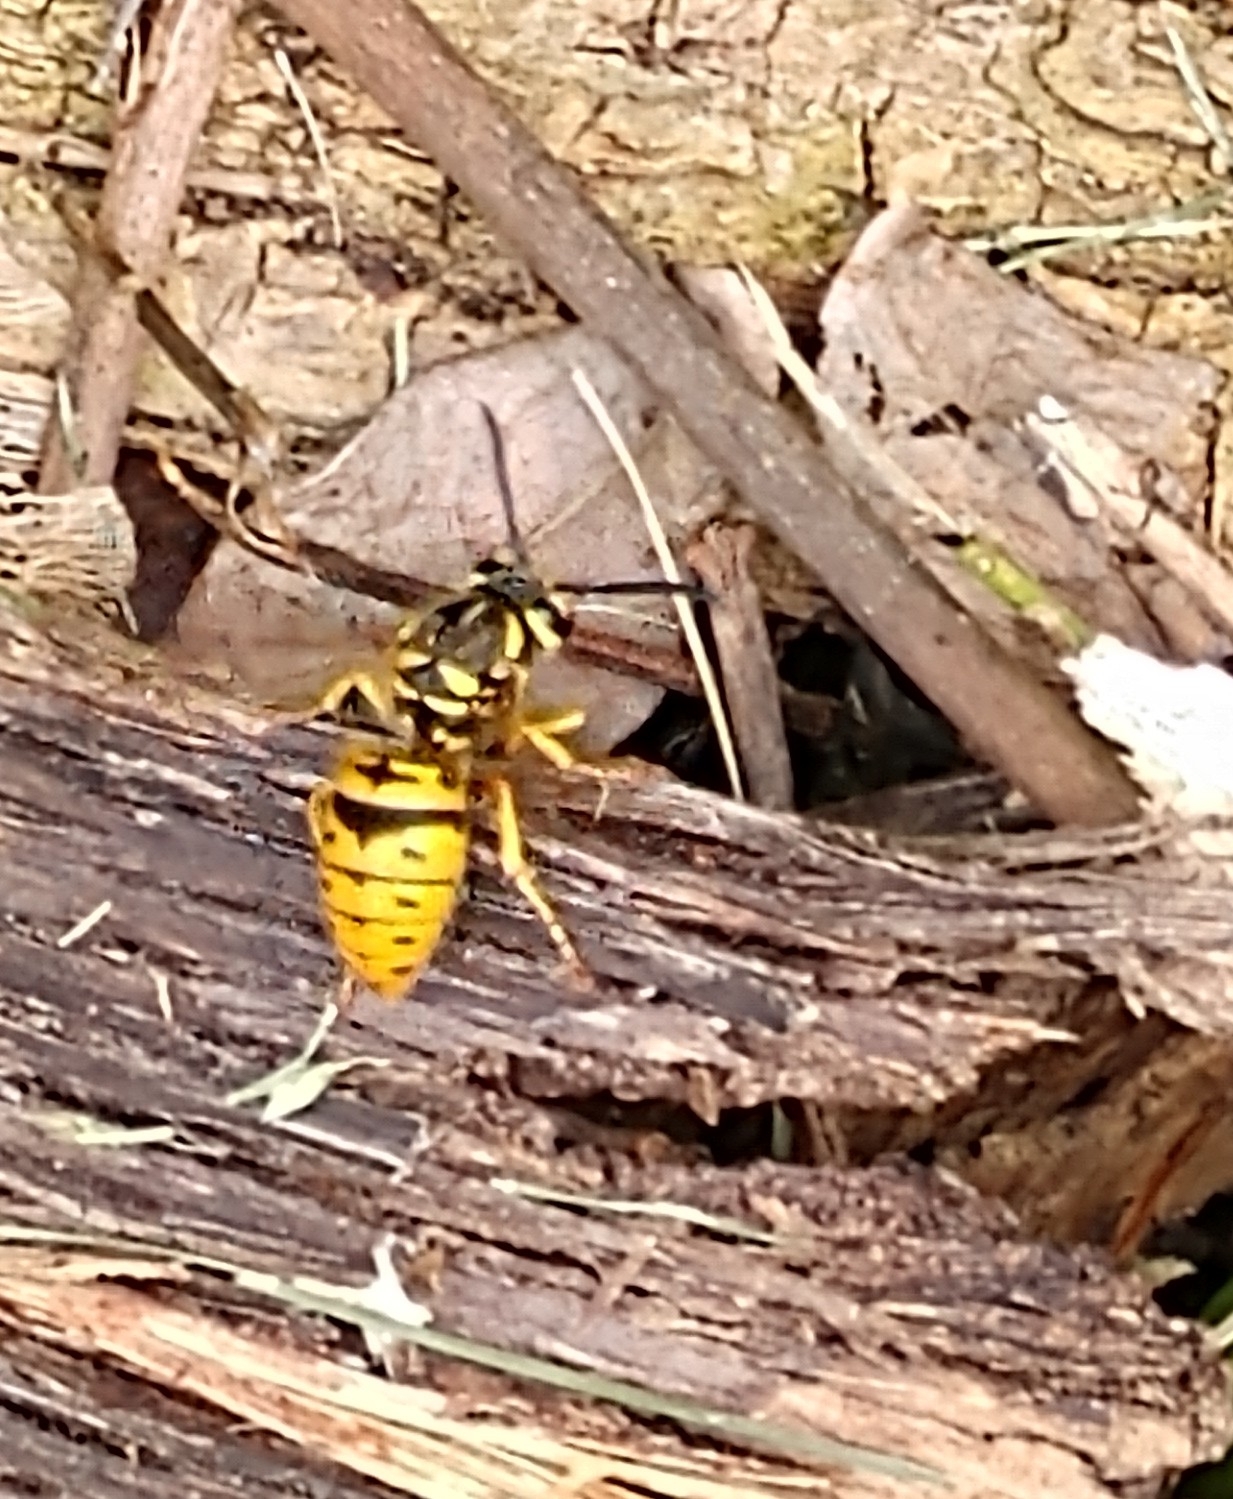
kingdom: Animalia
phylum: Arthropoda
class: Insecta
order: Hymenoptera
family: Vespidae
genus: Vespula
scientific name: Vespula maculifrons
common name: Eastern yellowjacket
